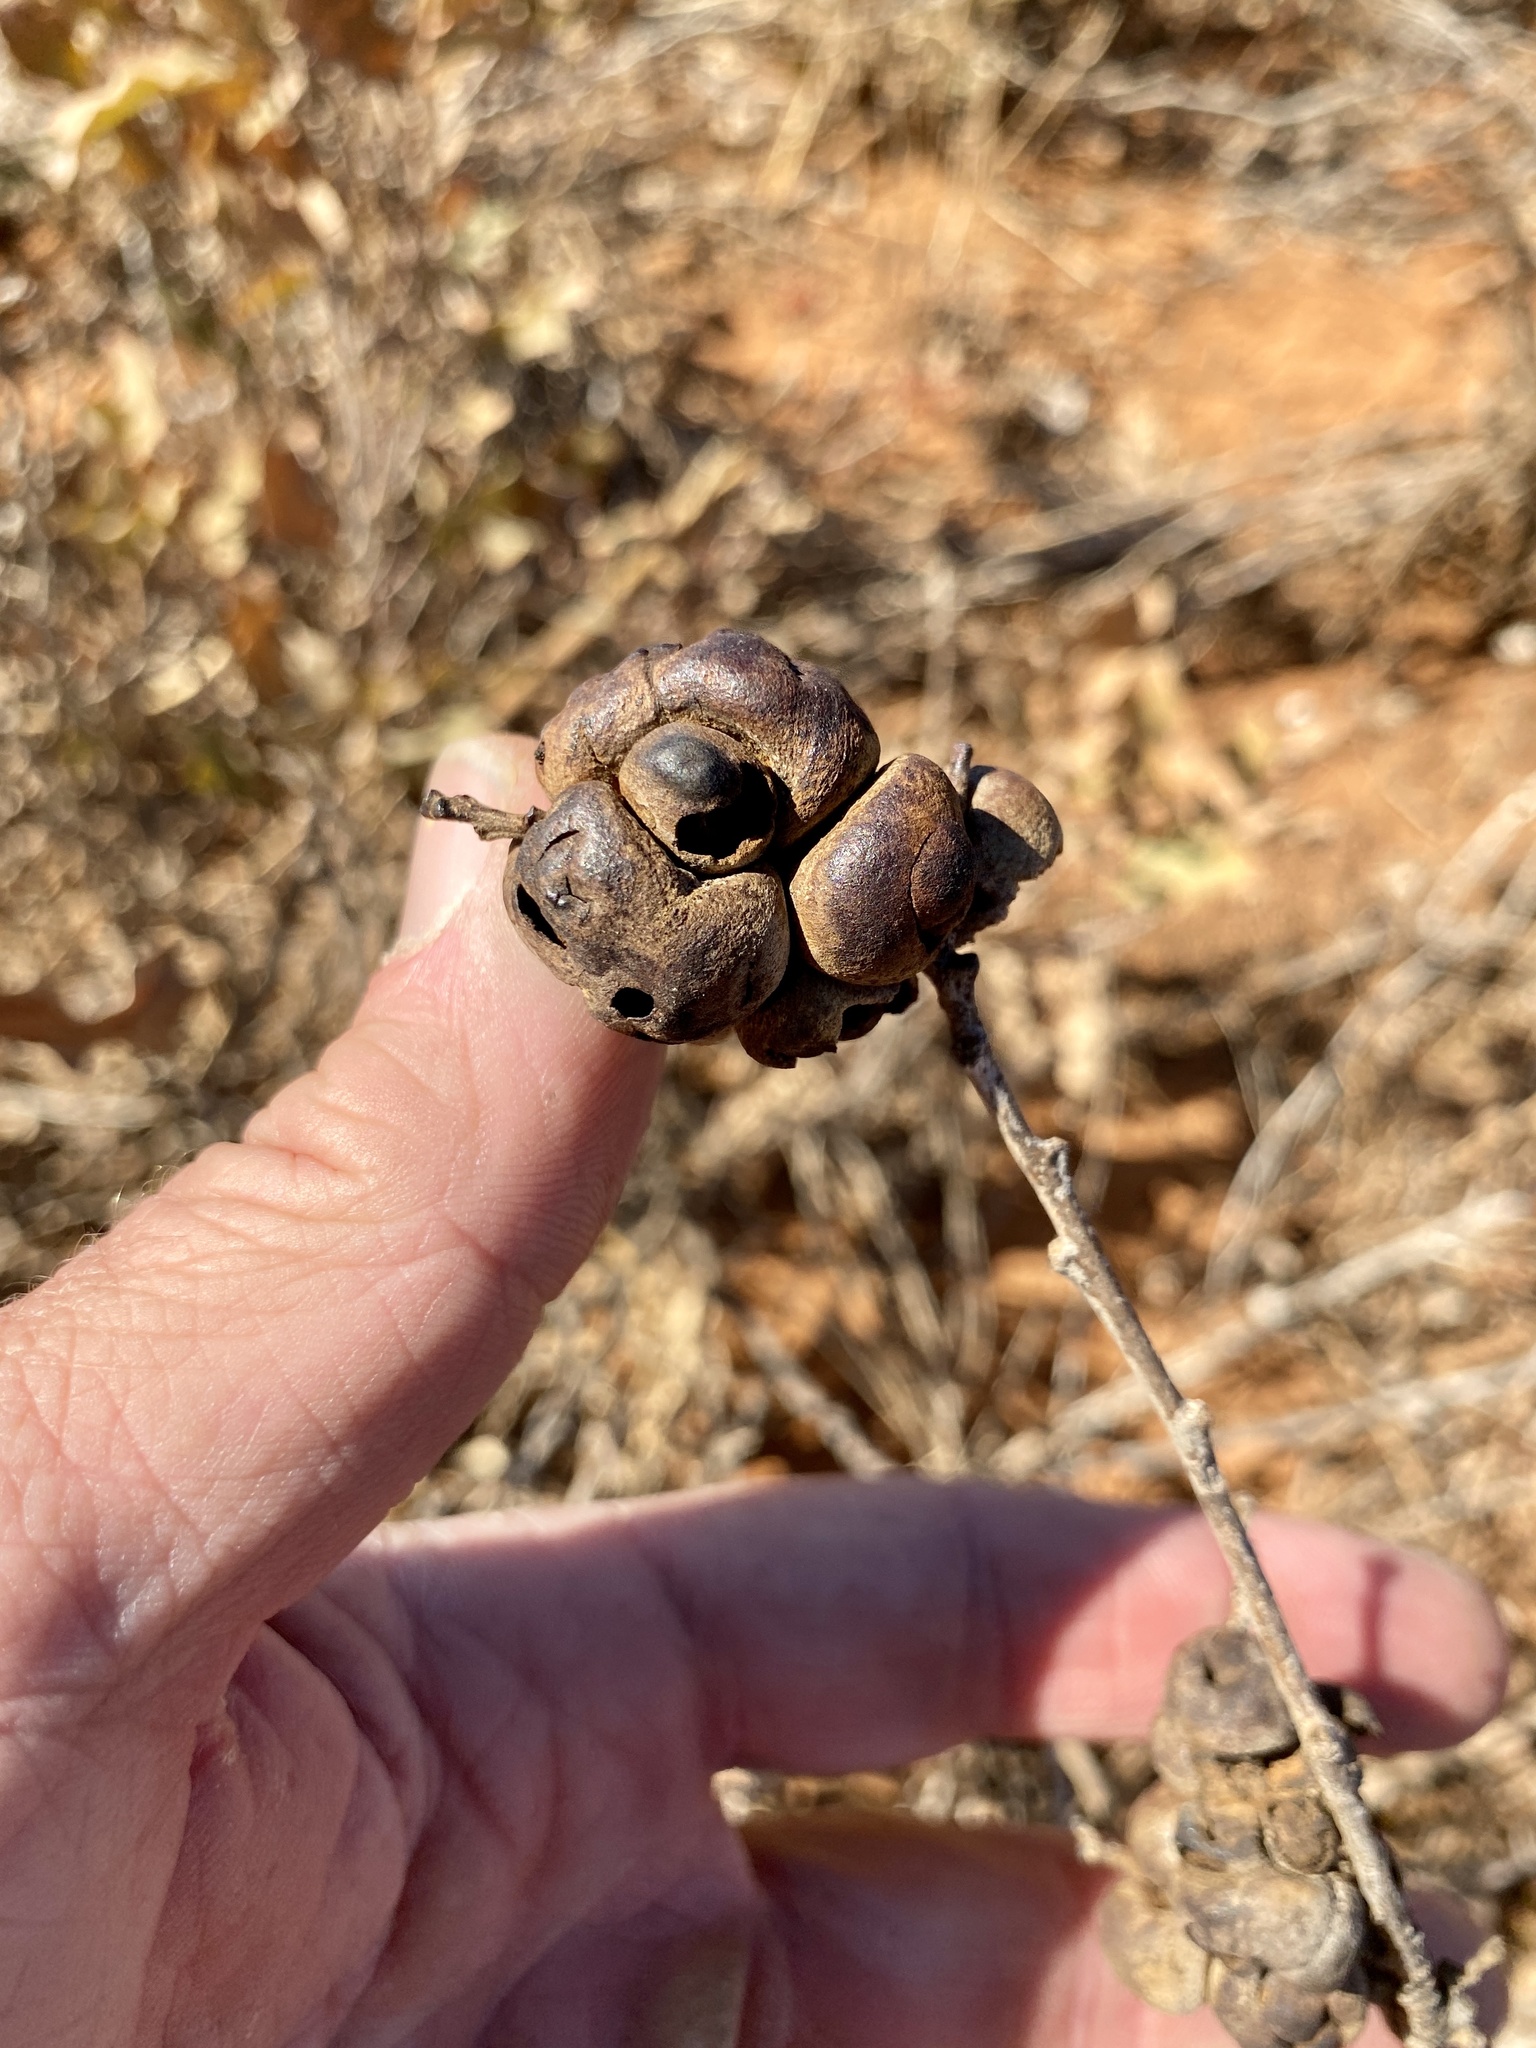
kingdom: Animalia
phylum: Arthropoda
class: Insecta
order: Hymenoptera
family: Cynipidae
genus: Disholcaspis
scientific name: Disholcaspis erugomamma
